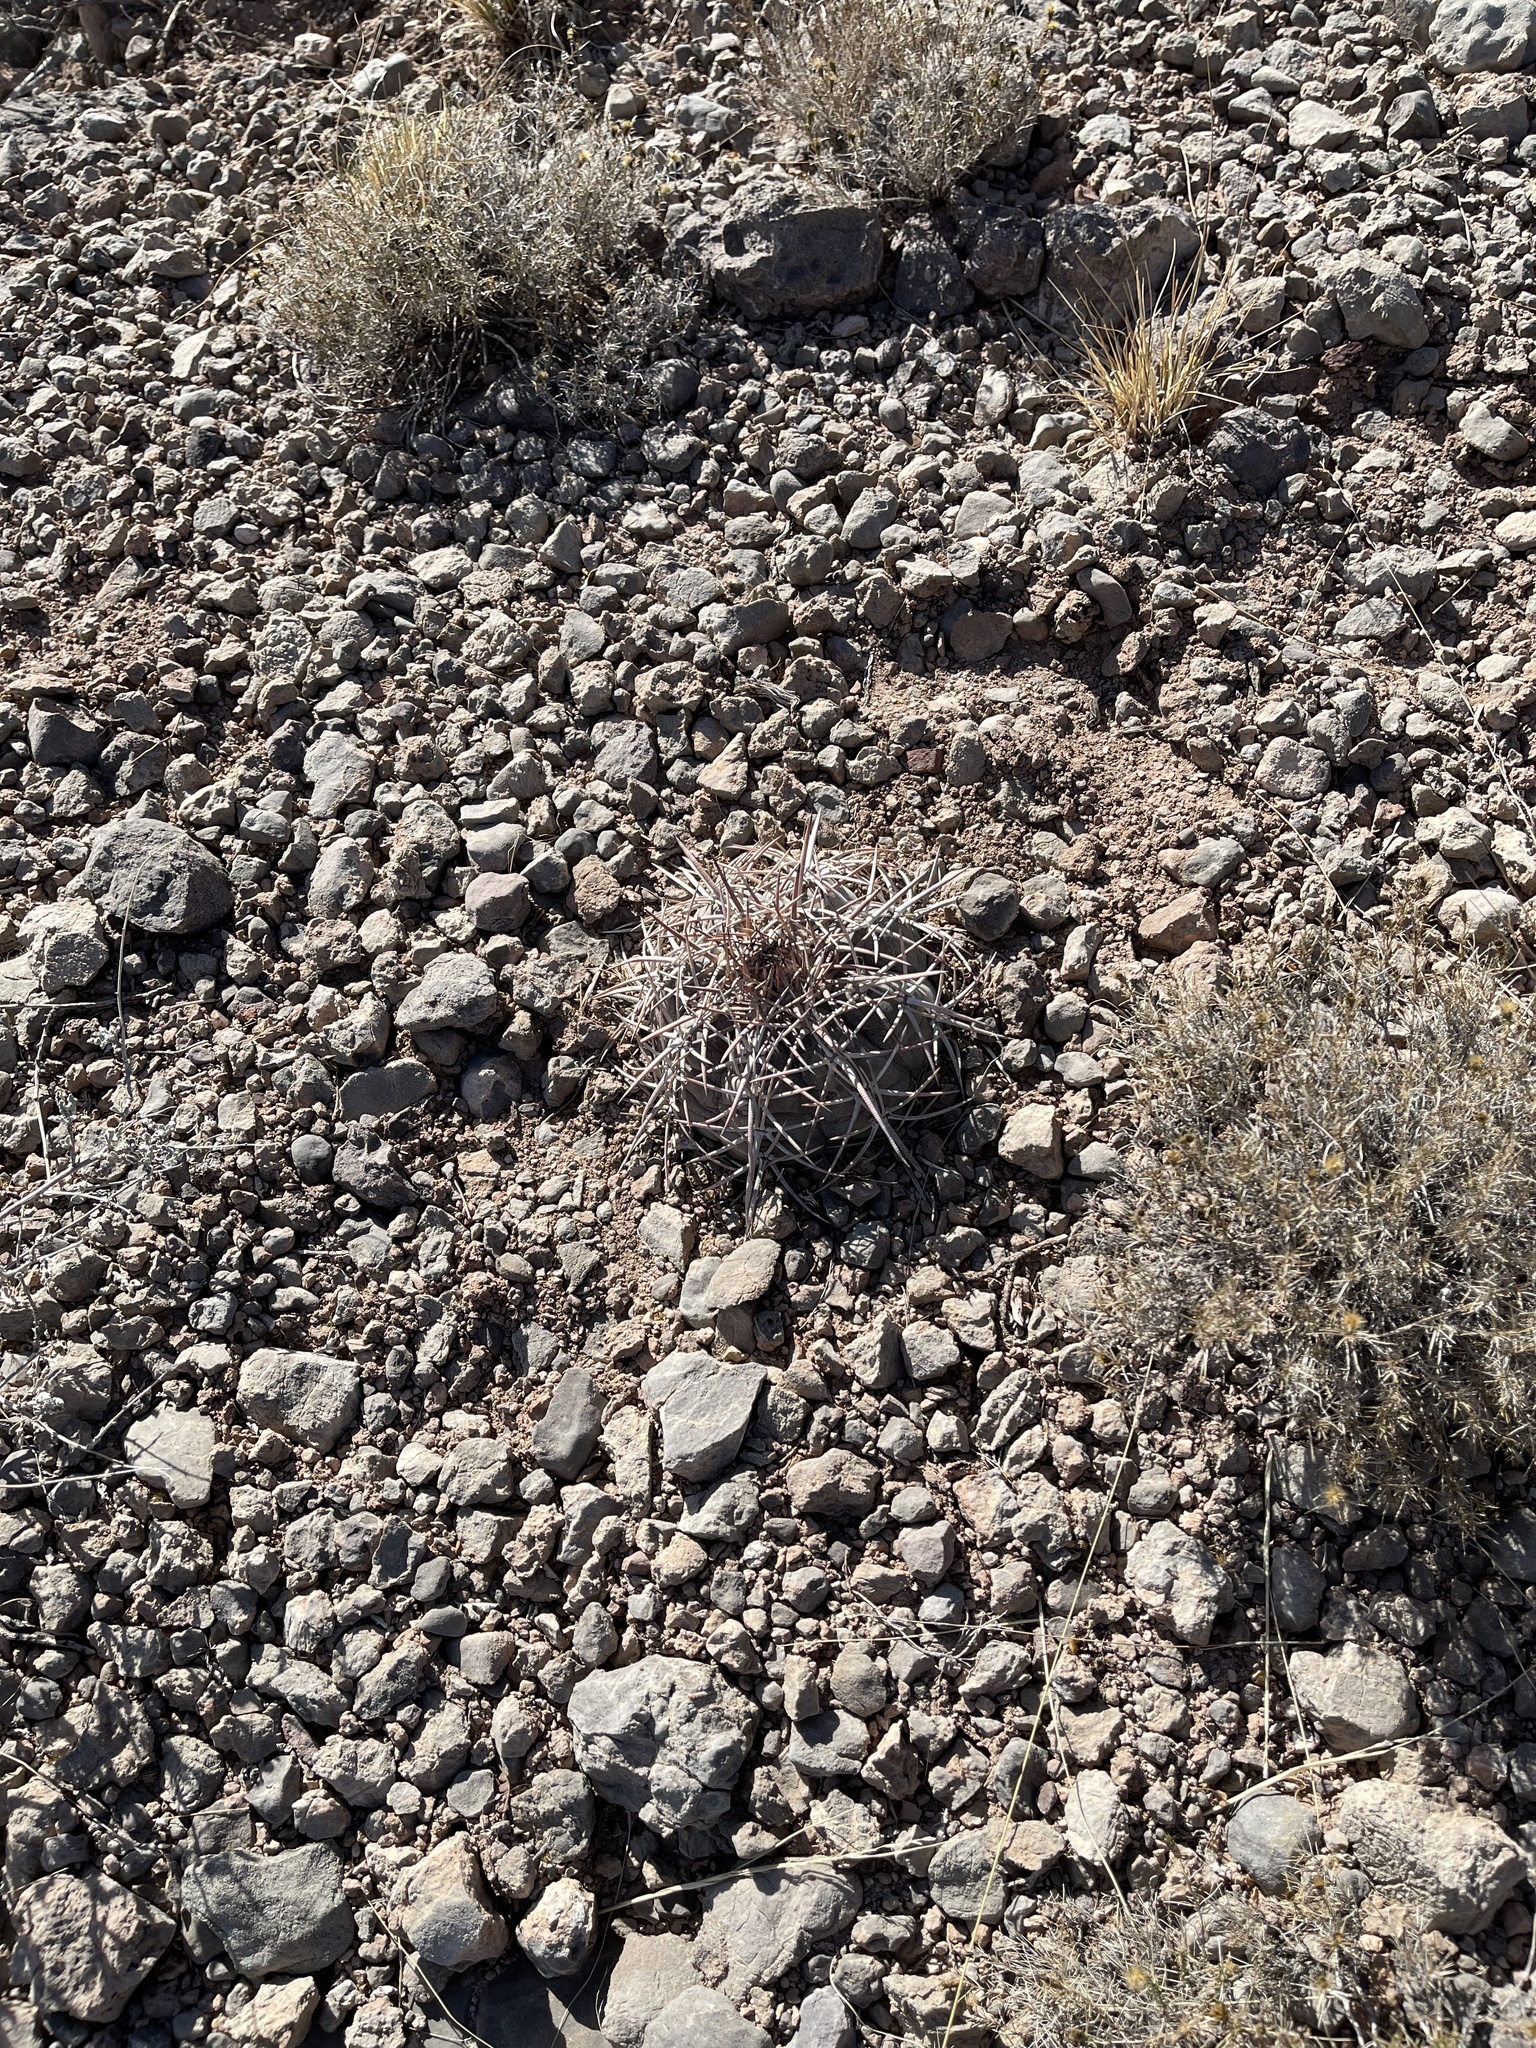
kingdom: Plantae
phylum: Tracheophyta
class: Magnoliopsida
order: Caryophyllales
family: Cactaceae
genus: Echinocactus
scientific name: Echinocactus horizonthalonius
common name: Devilshead
